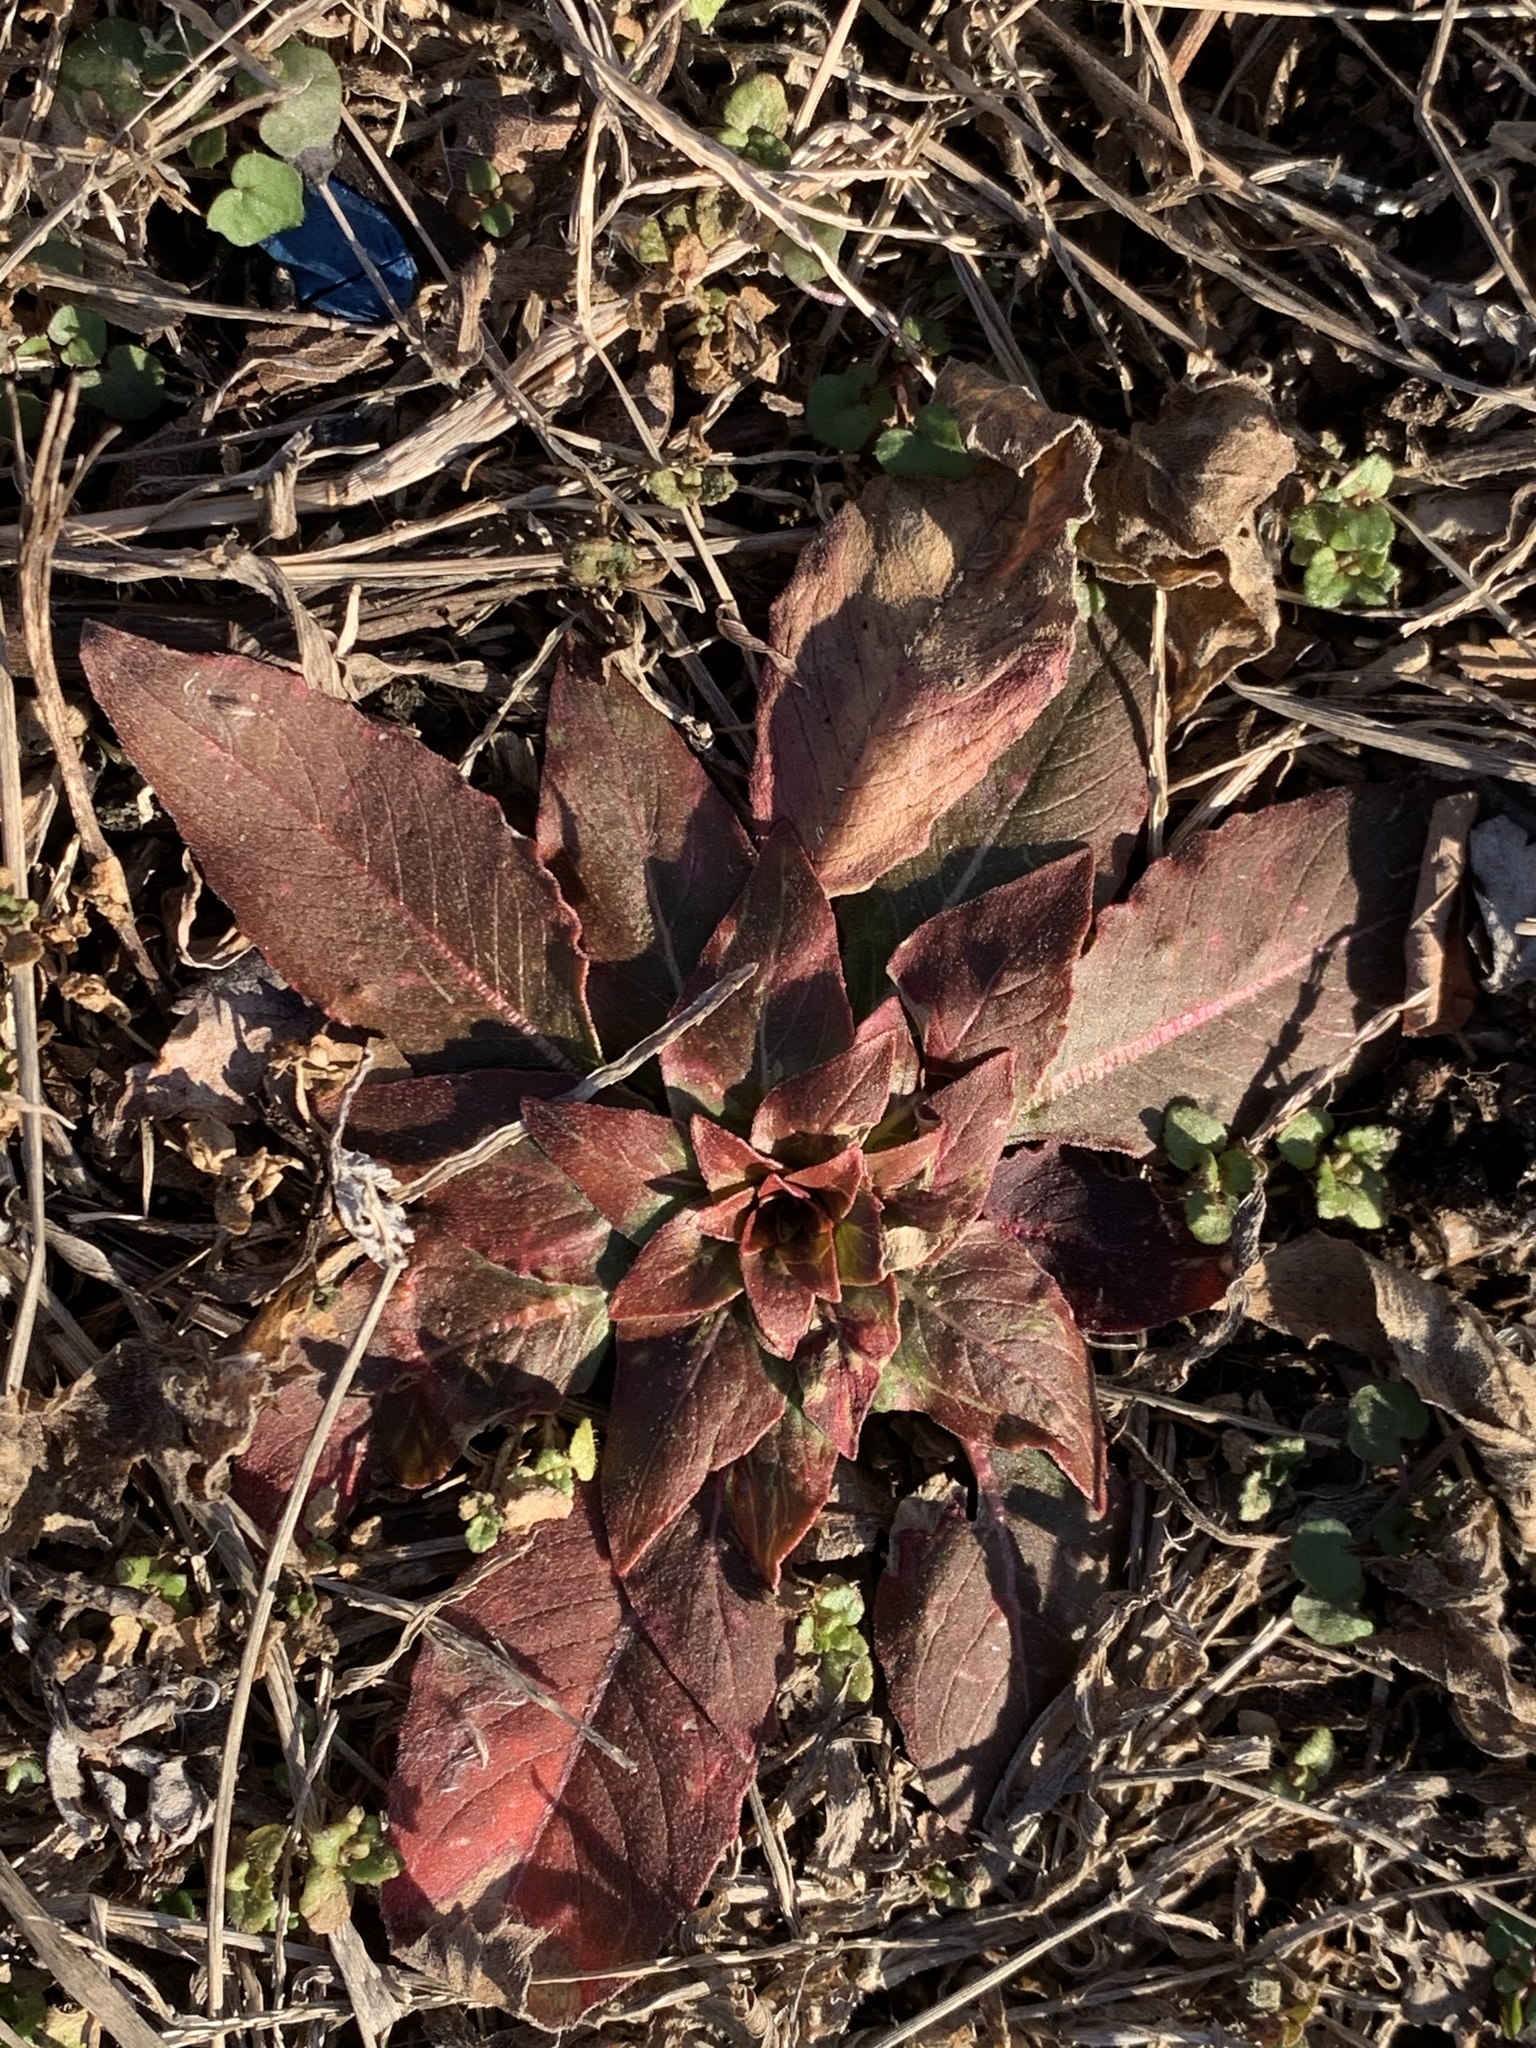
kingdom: Plantae
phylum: Tracheophyta
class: Magnoliopsida
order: Myrtales
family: Onagraceae
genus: Oenothera
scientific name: Oenothera biennis
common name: Common evening-primrose
